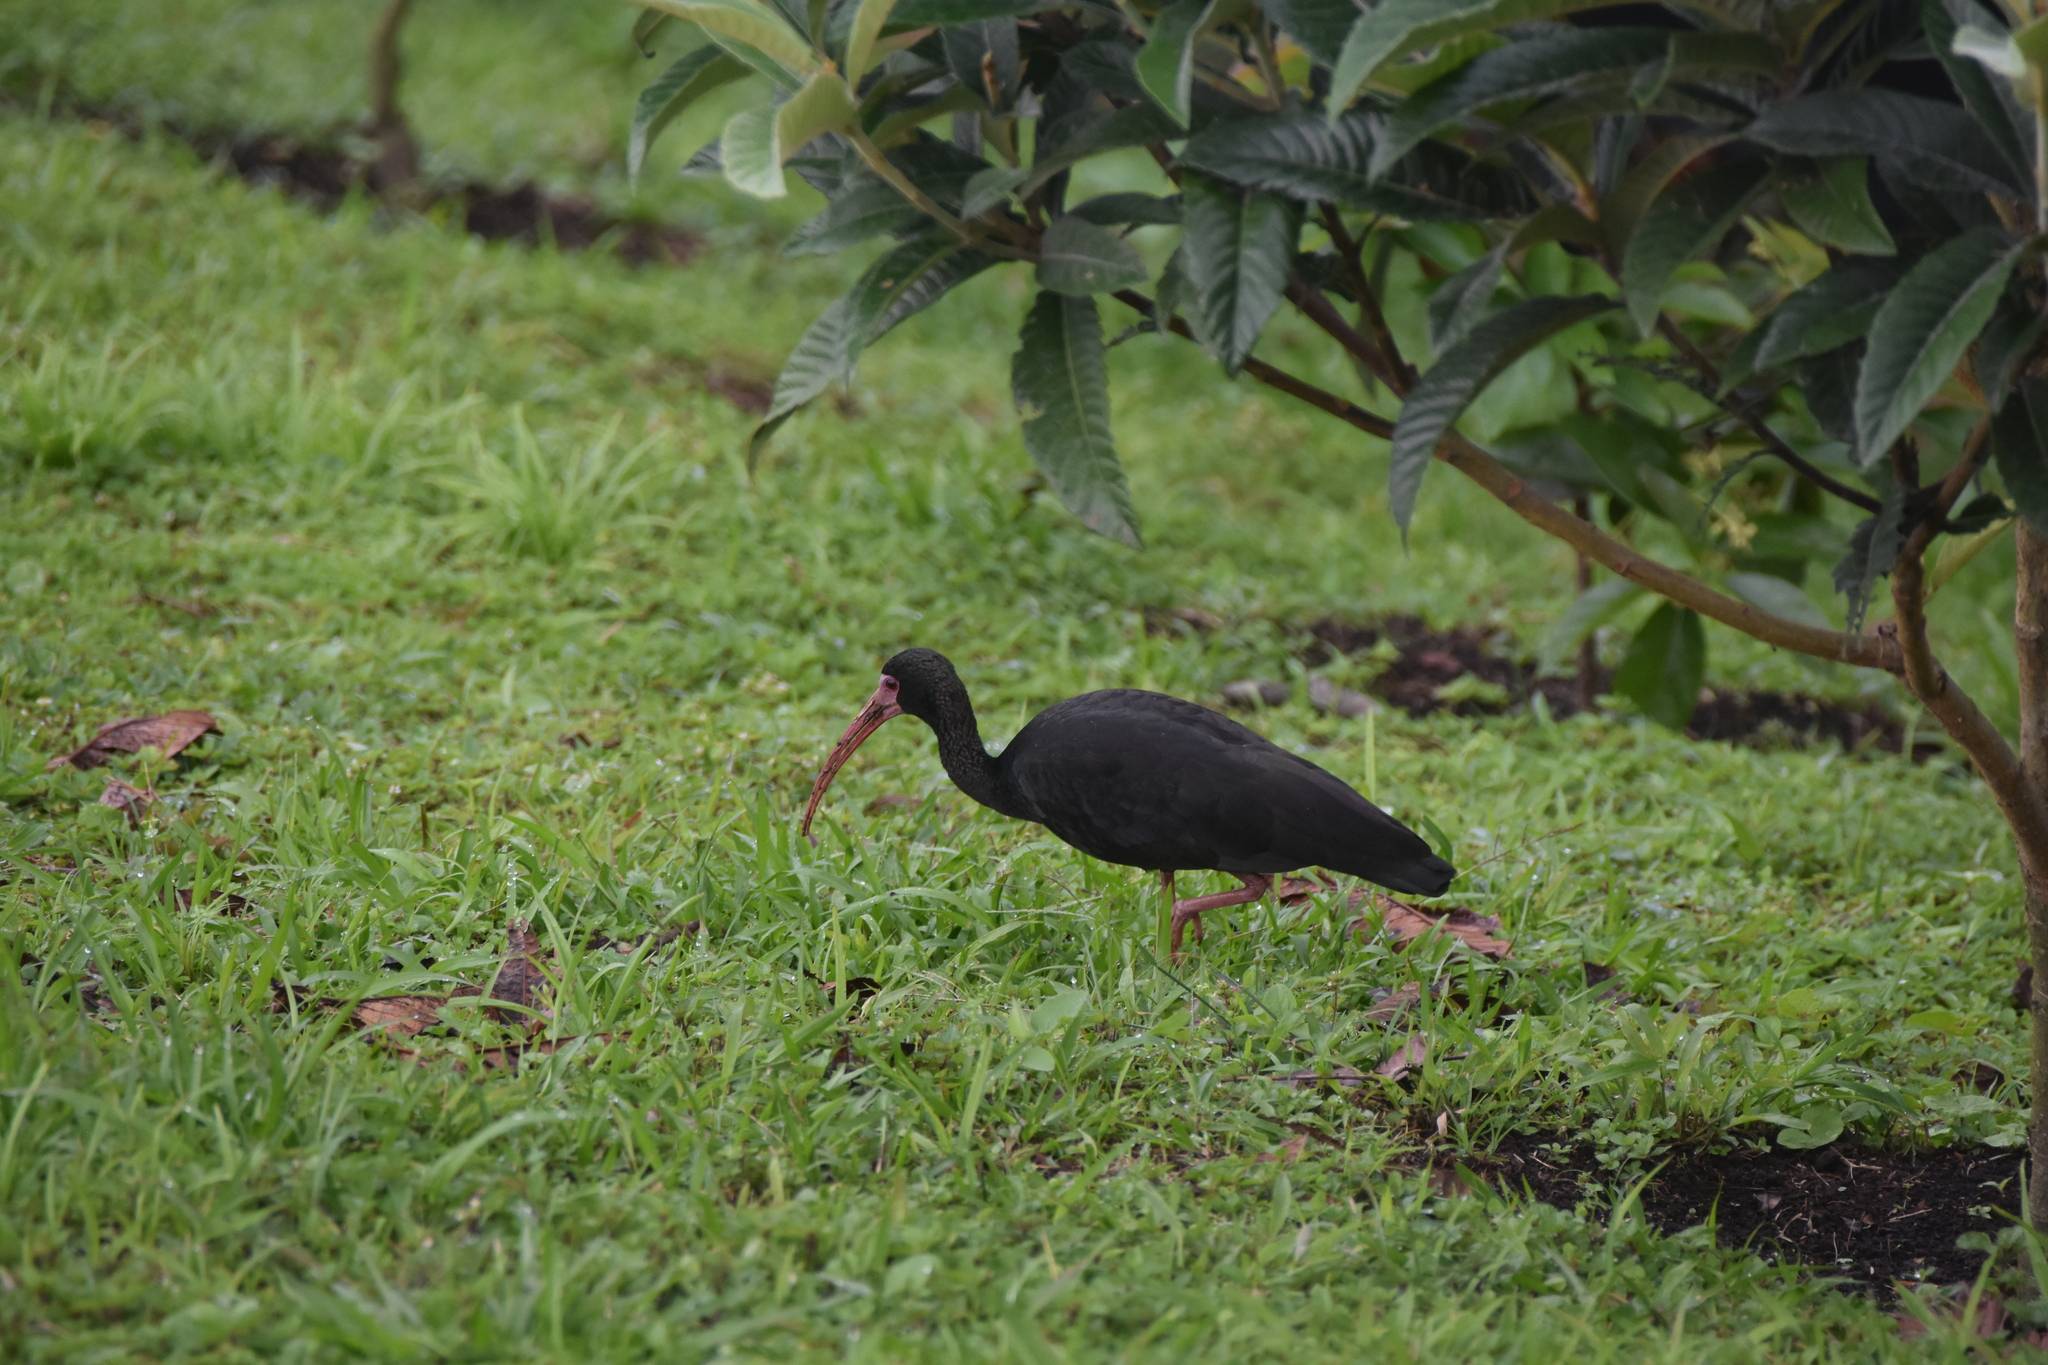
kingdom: Animalia
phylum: Chordata
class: Aves
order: Pelecaniformes
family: Threskiornithidae
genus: Phimosus
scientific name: Phimosus infuscatus
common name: Bare-faced ibis
